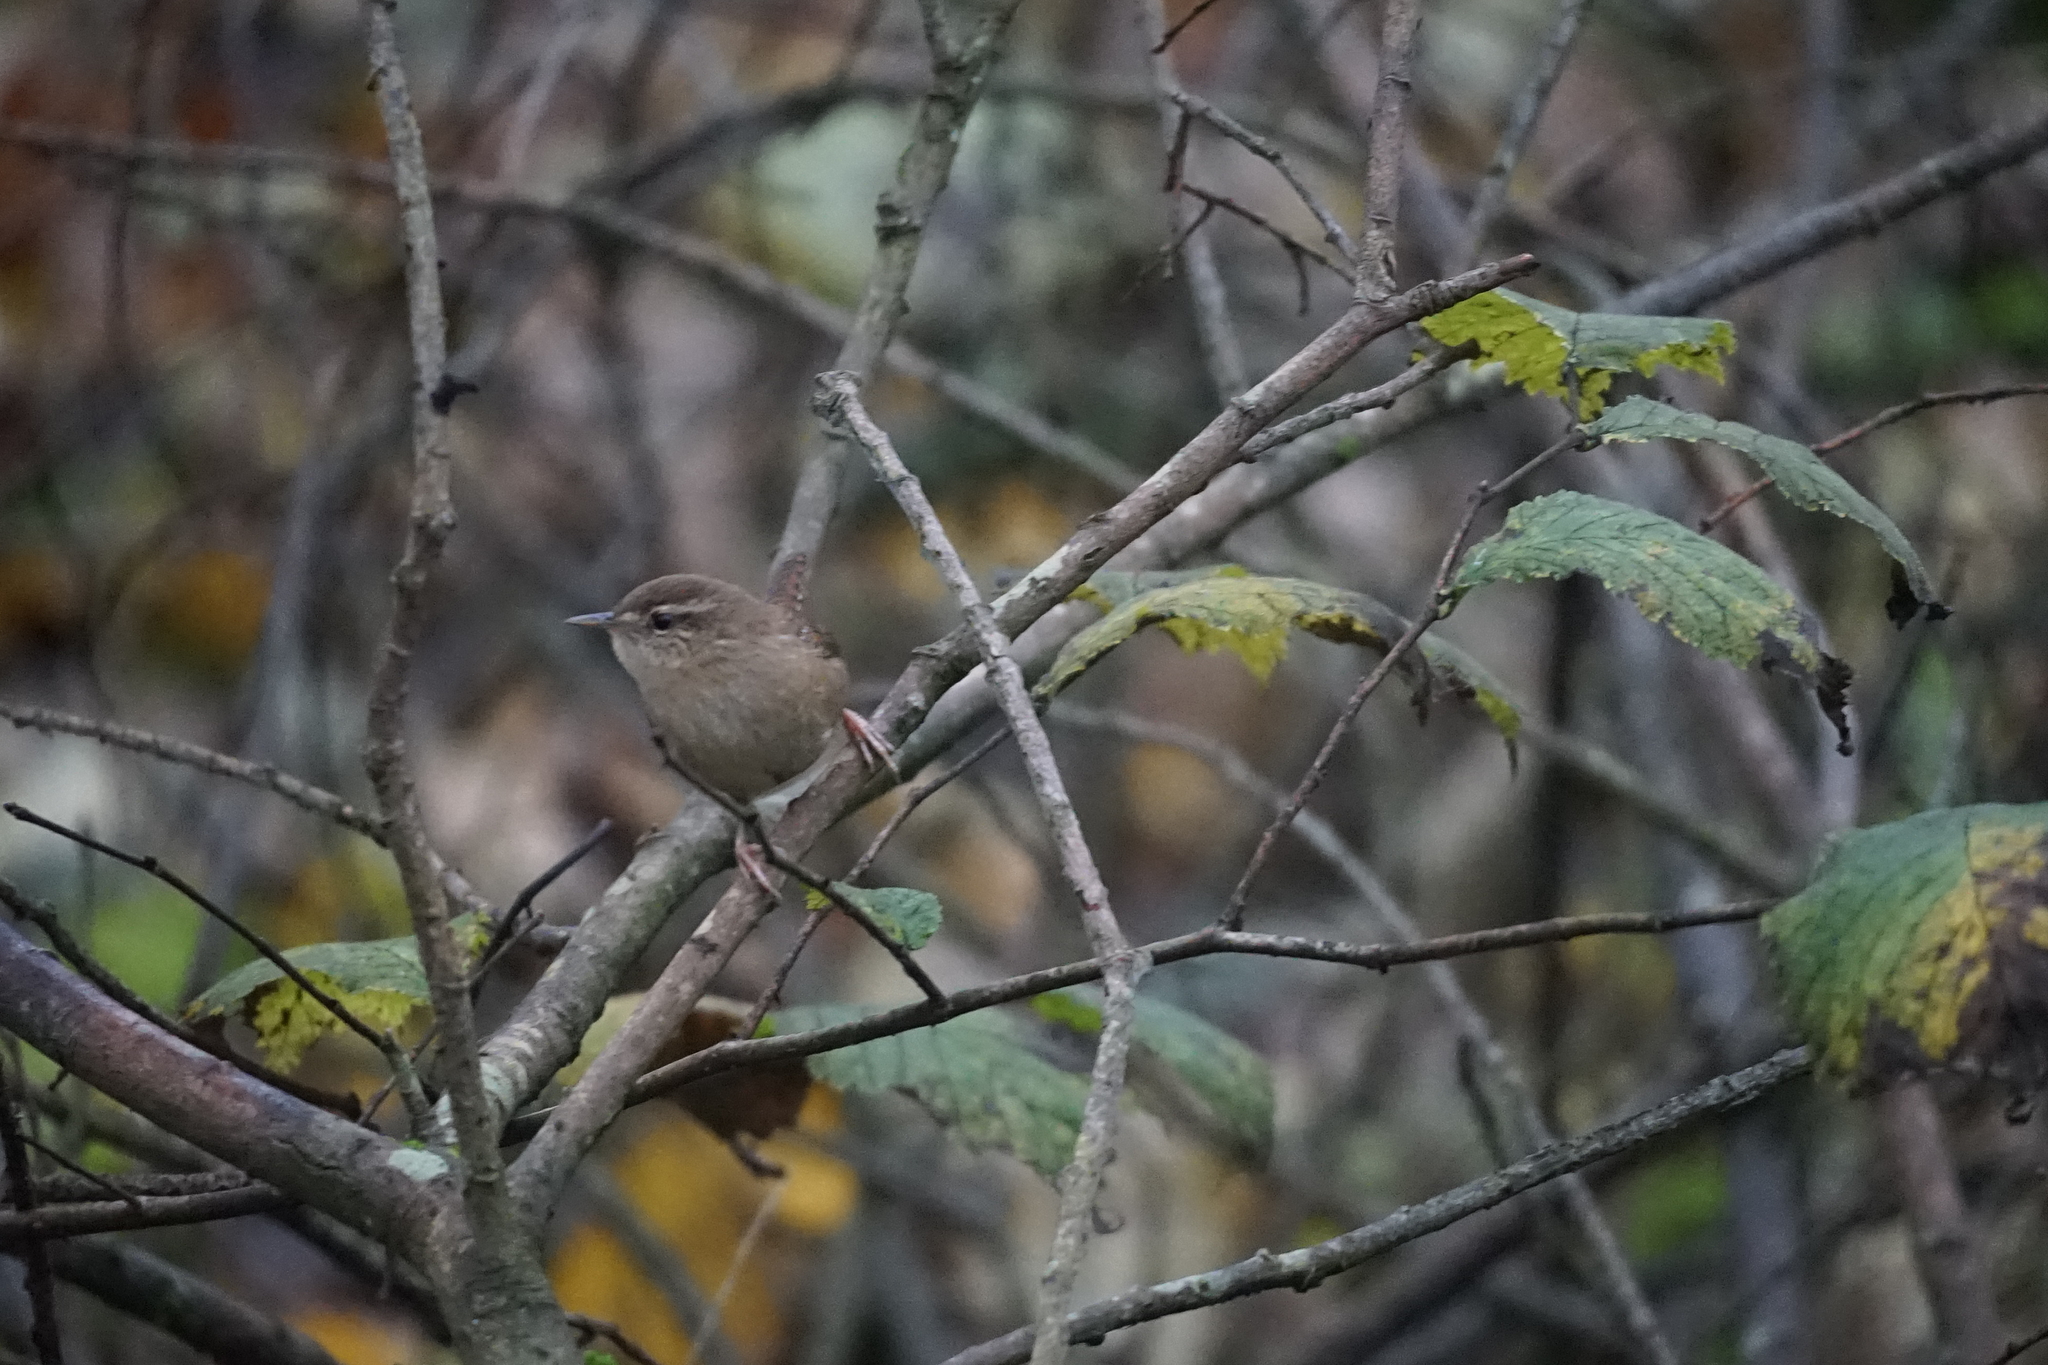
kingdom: Animalia
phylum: Chordata
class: Aves
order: Passeriformes
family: Troglodytidae
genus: Troglodytes
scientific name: Troglodytes troglodytes
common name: Eurasian wren
